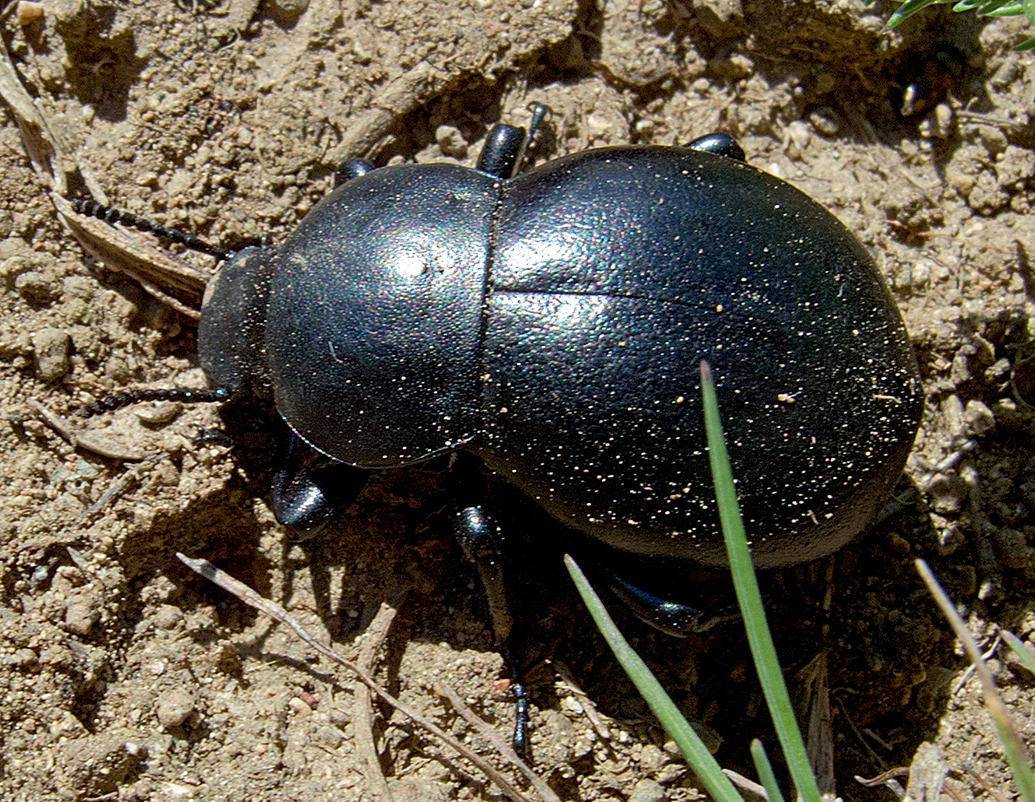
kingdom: Animalia
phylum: Arthropoda
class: Insecta
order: Coleoptera
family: Tenebrionidae
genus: Gnaptor
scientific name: Gnaptor spinimanus
